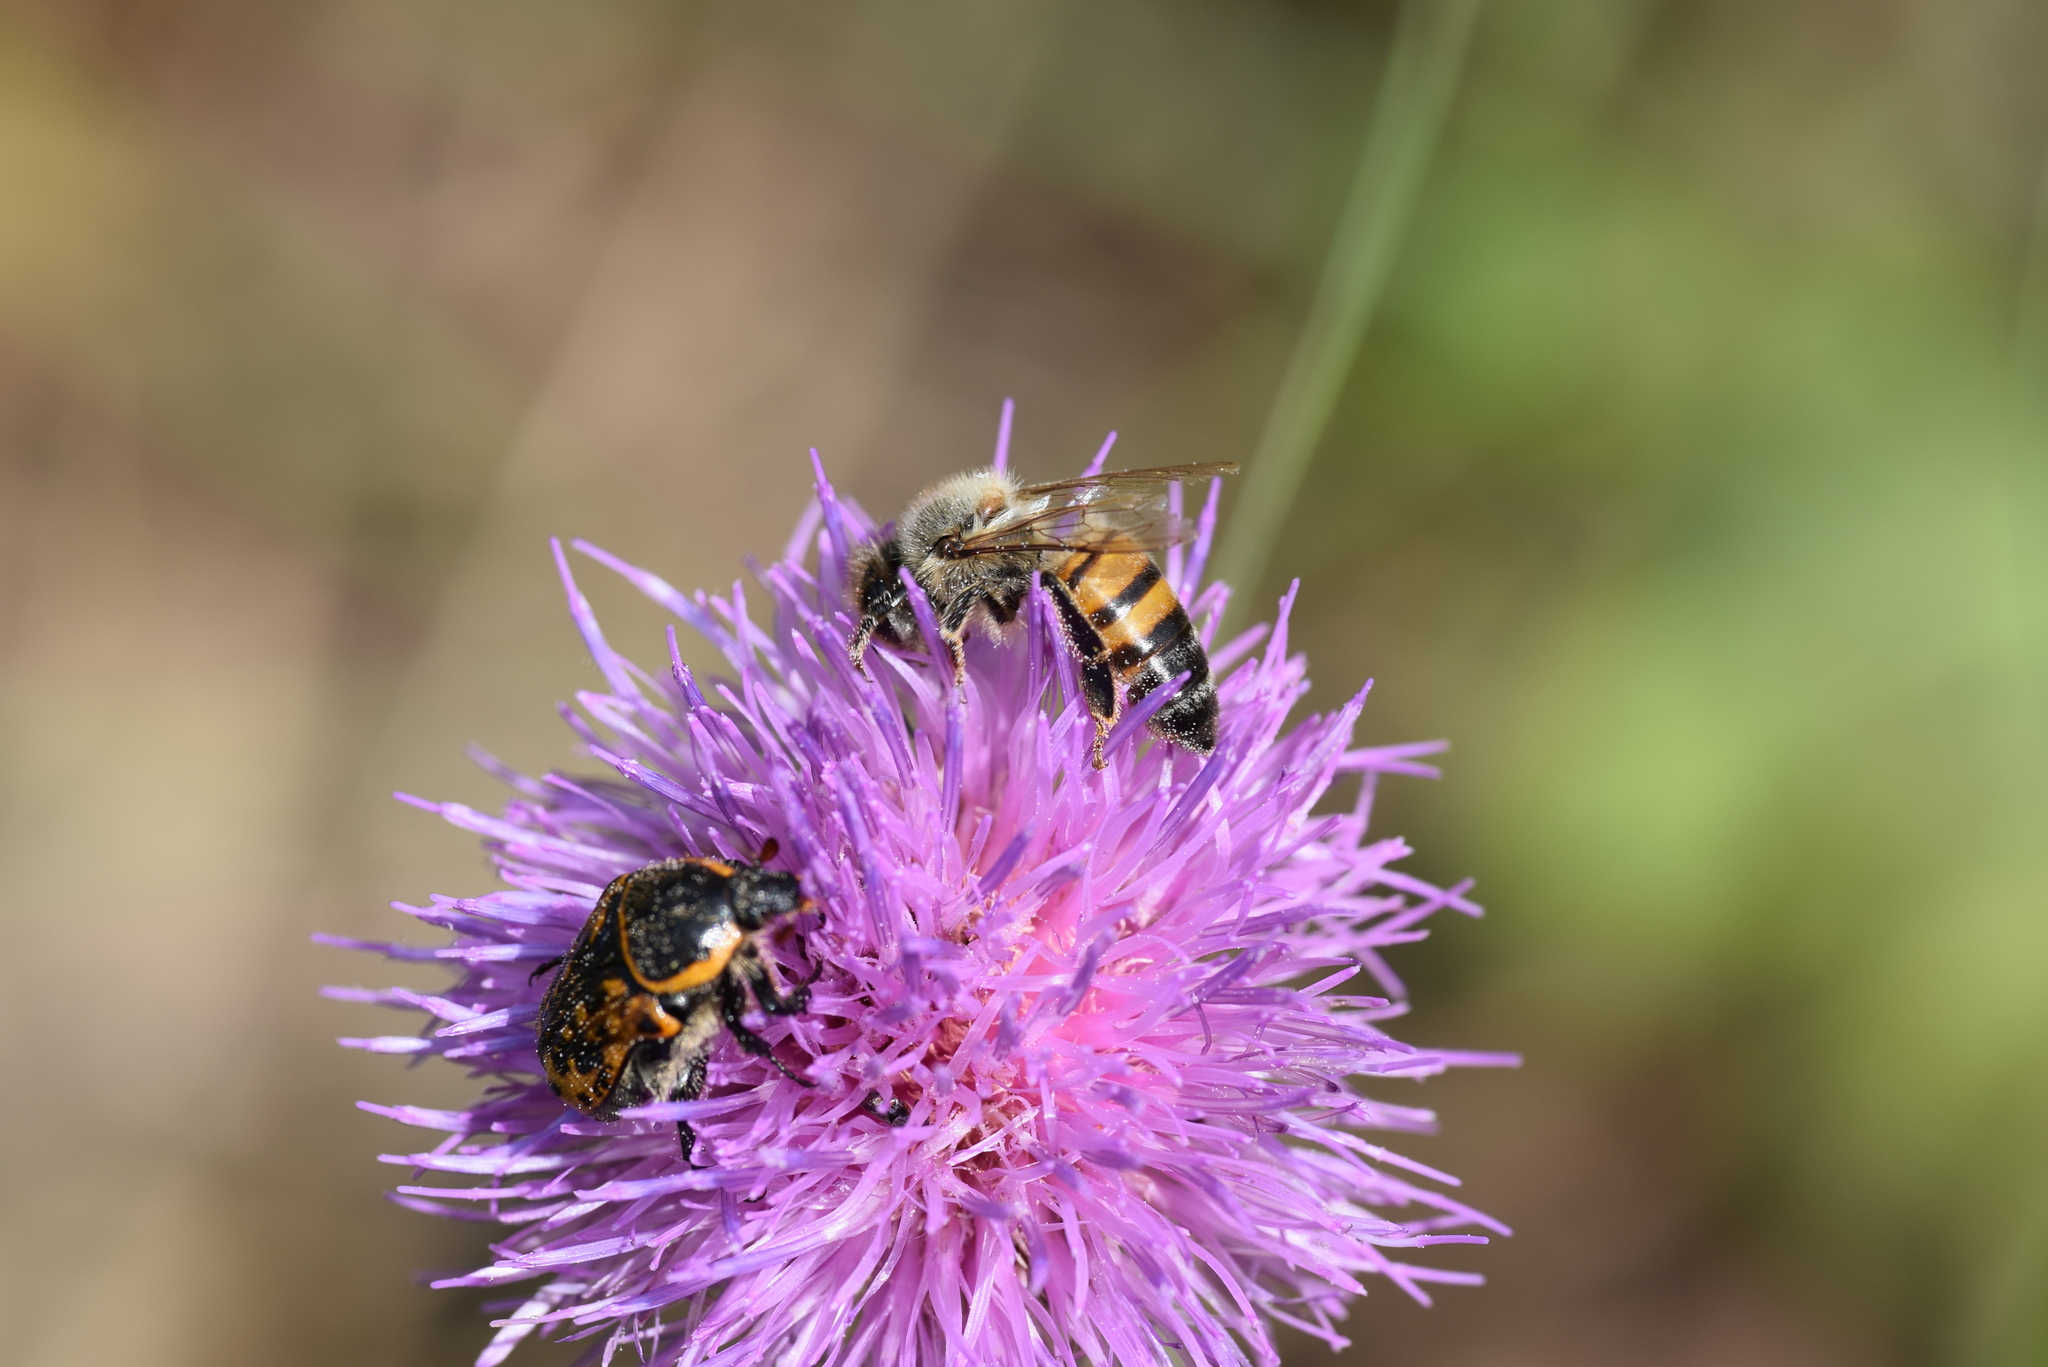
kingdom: Animalia
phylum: Arthropoda
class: Insecta
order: Hymenoptera
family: Apidae
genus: Apis
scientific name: Apis mellifera
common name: Honey bee
